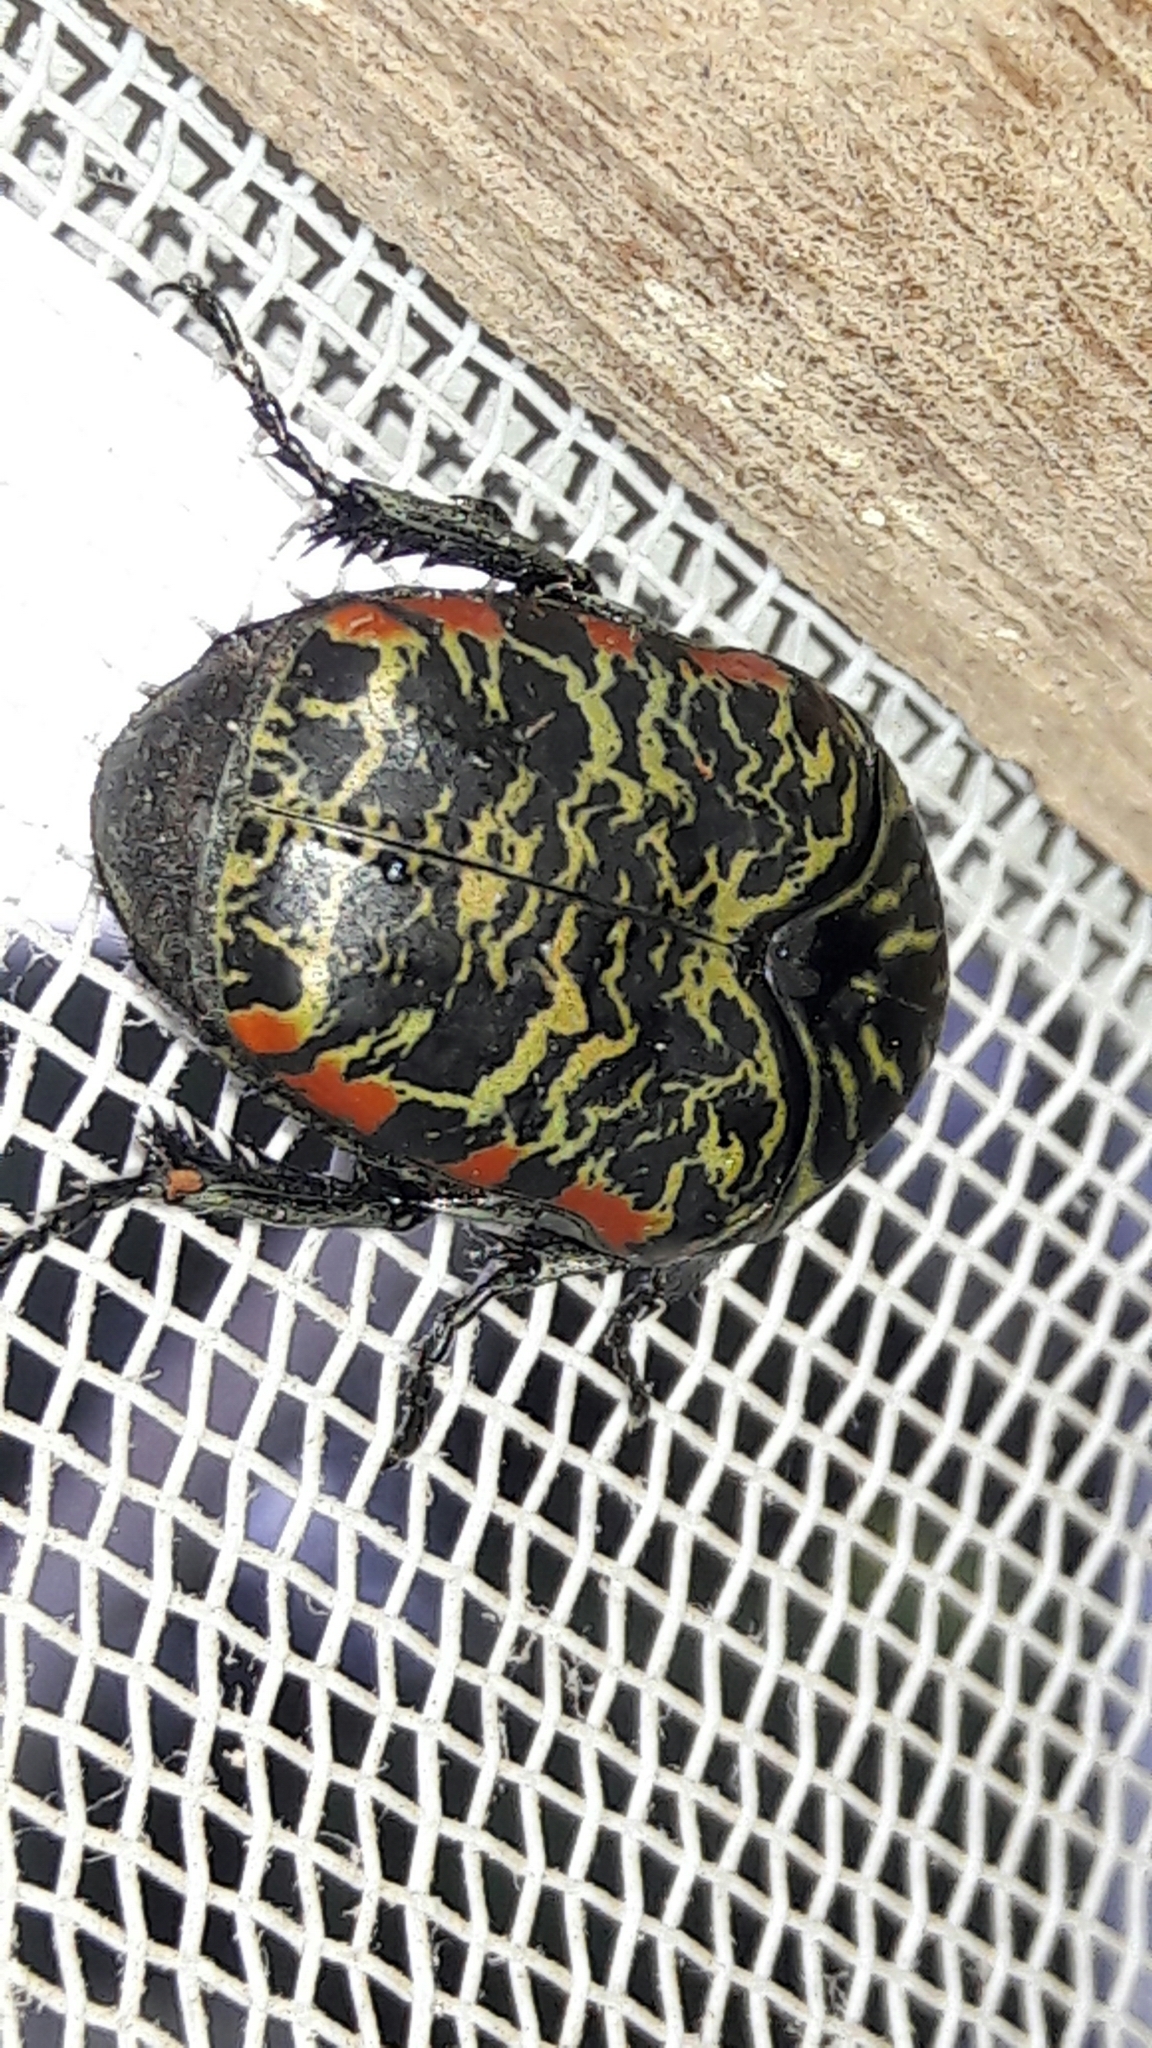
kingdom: Animalia
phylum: Arthropoda
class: Insecta
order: Coleoptera
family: Scarabaeidae
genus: Gymnetis
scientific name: Gymnetis rufilatris
